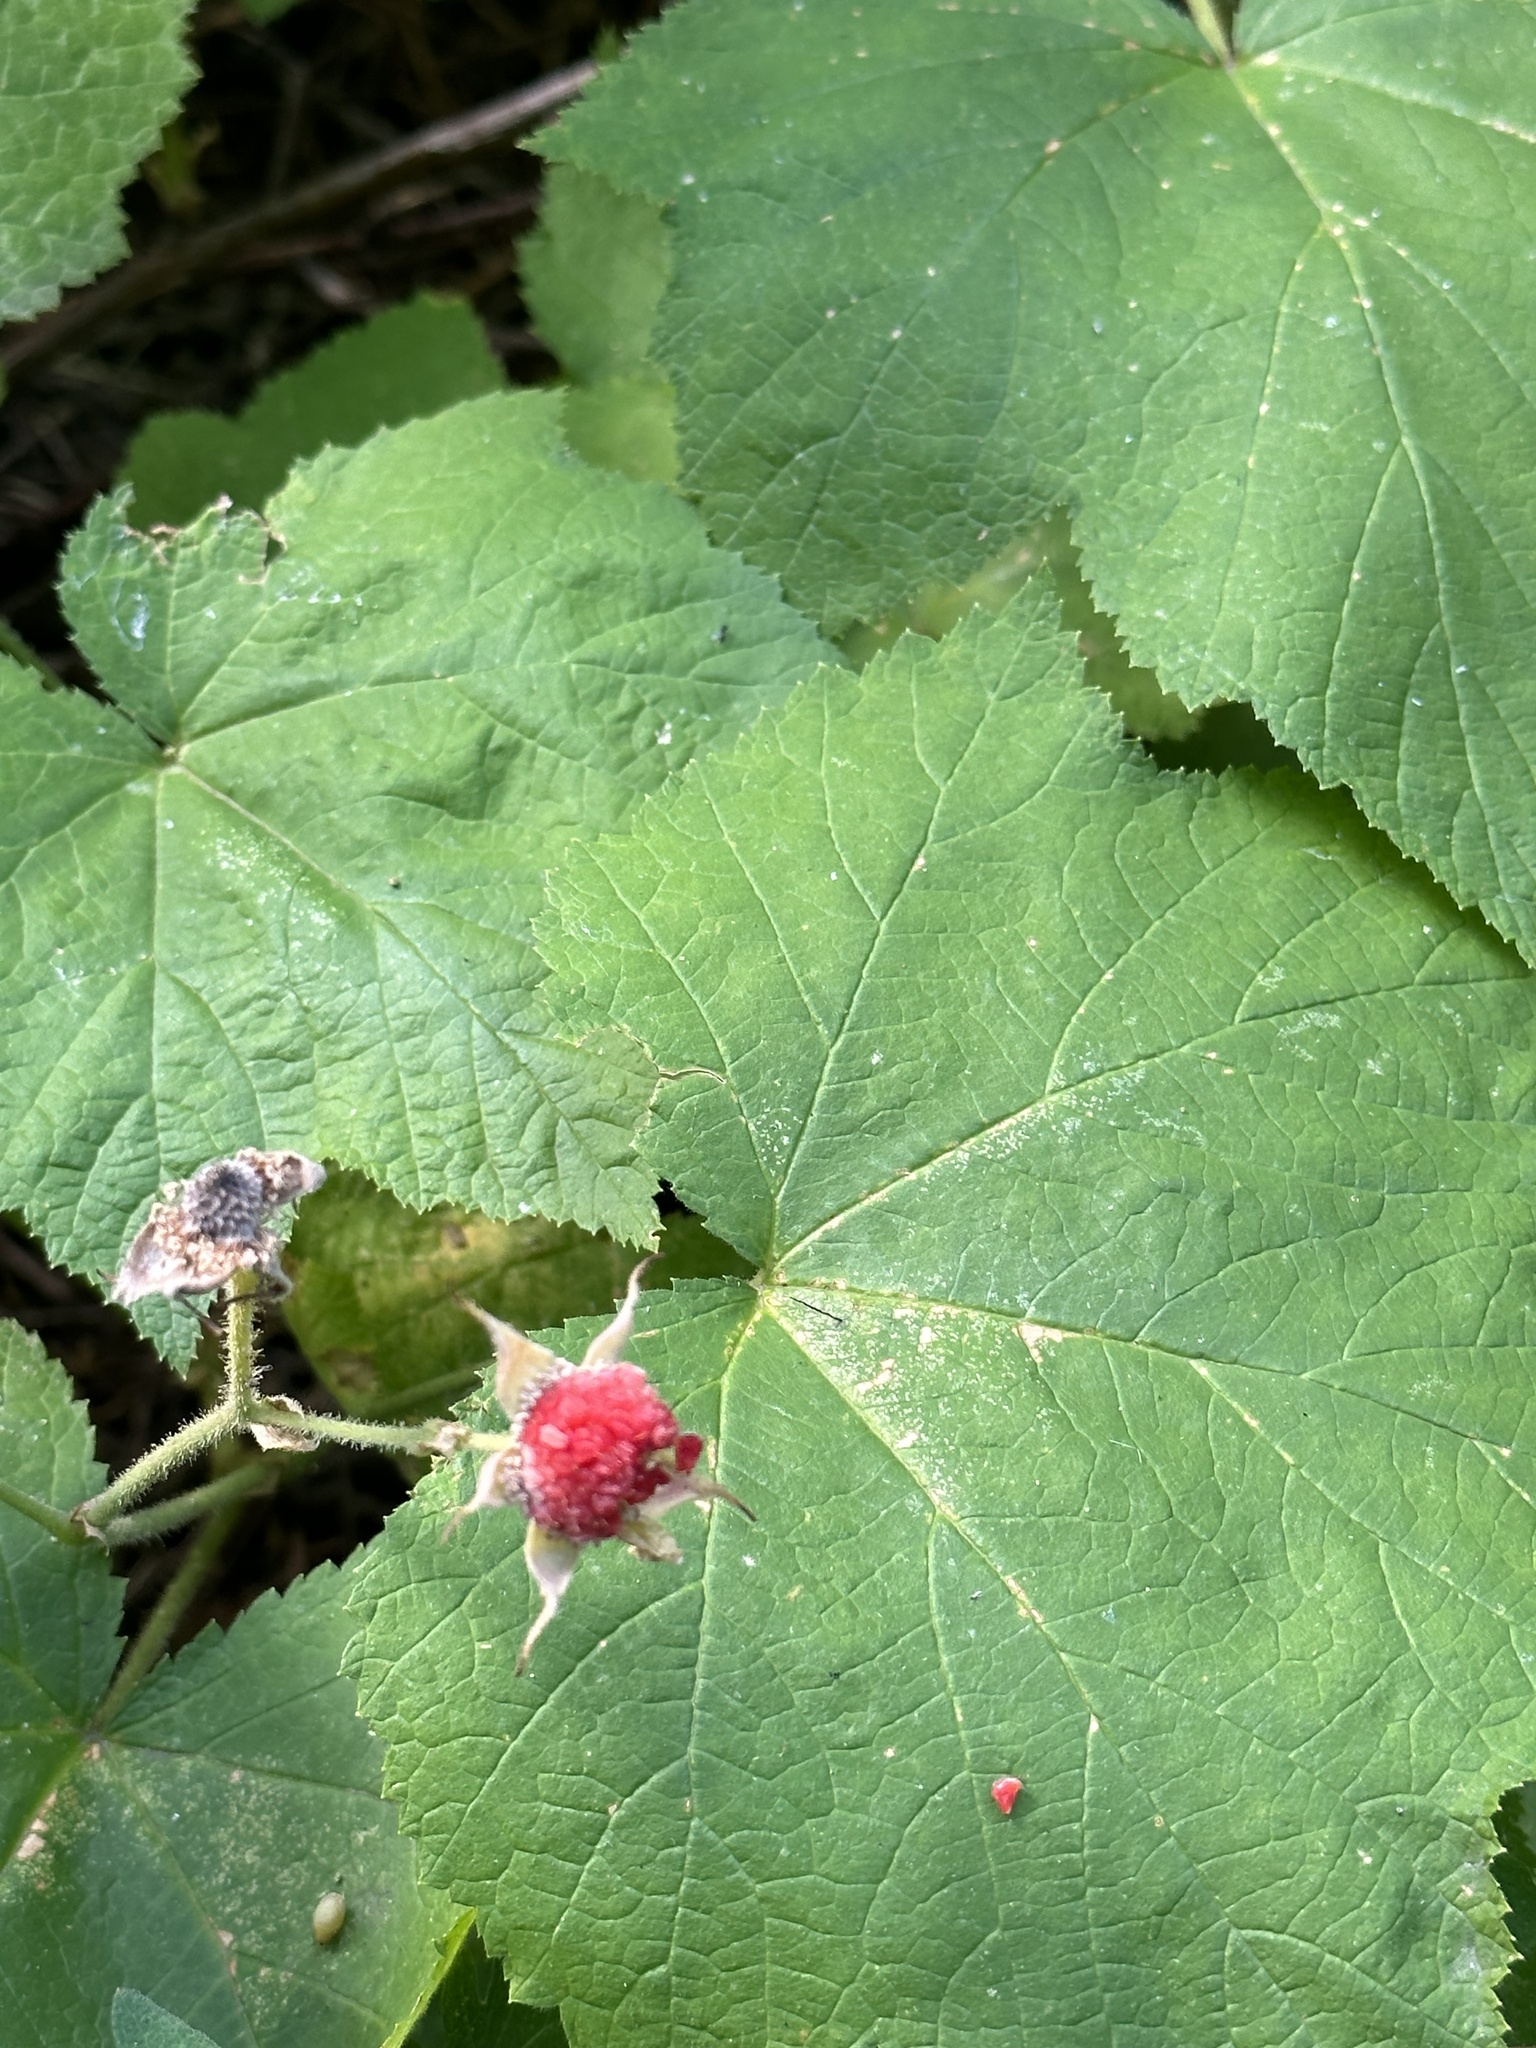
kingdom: Plantae
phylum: Tracheophyta
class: Magnoliopsida
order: Rosales
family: Rosaceae
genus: Rubus
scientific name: Rubus parviflorus
